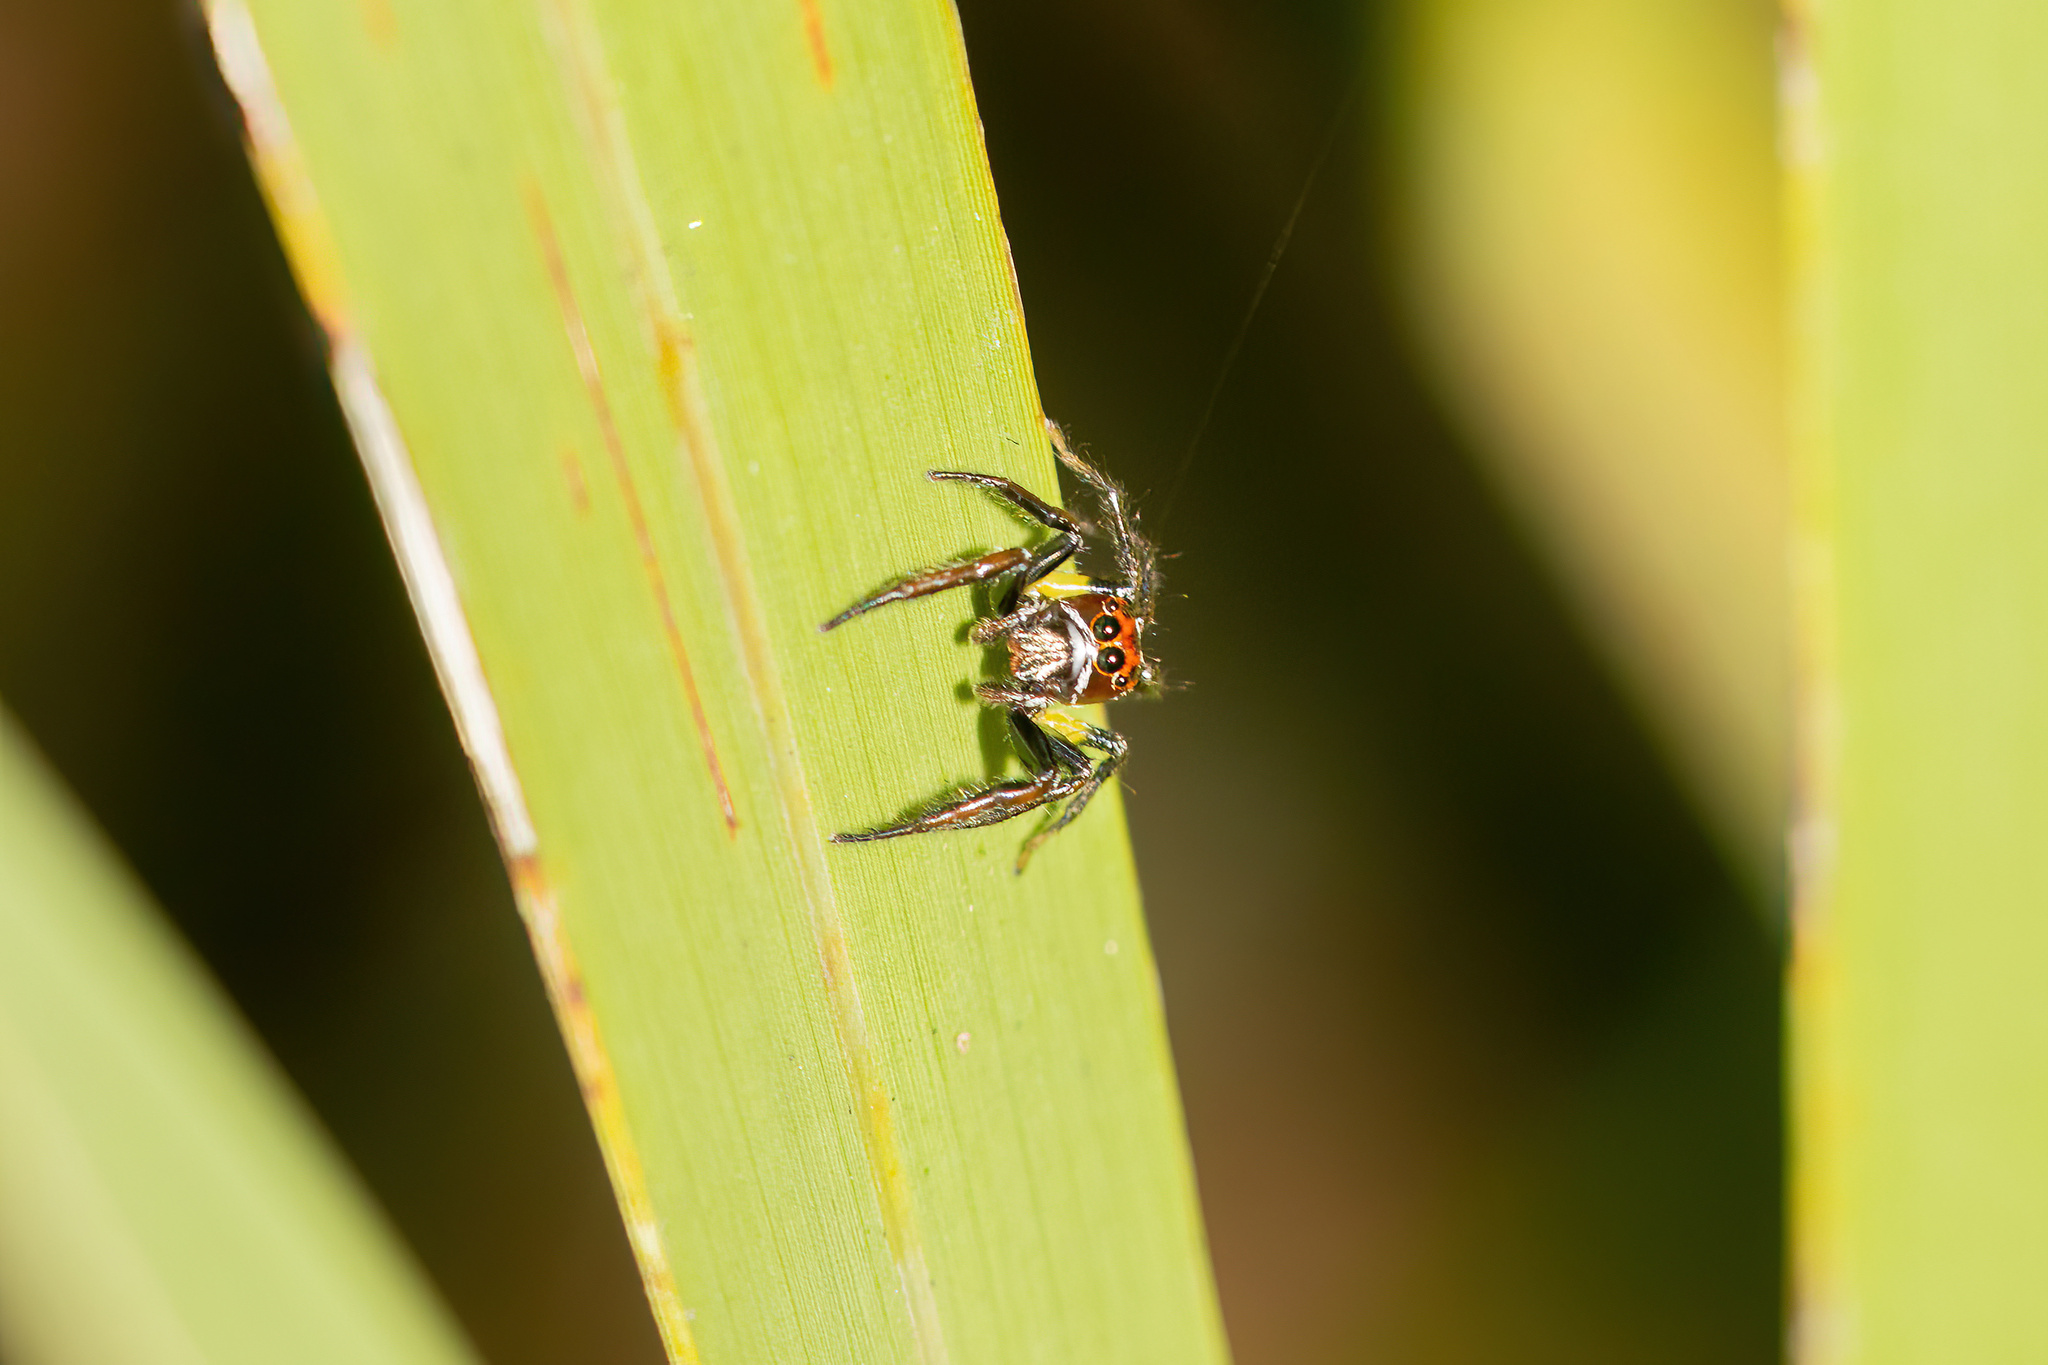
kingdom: Animalia
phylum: Arthropoda
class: Arachnida
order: Araneae
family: Salticidae
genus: Colonus
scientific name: Colonus sylvanus
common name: Jumping spiders
